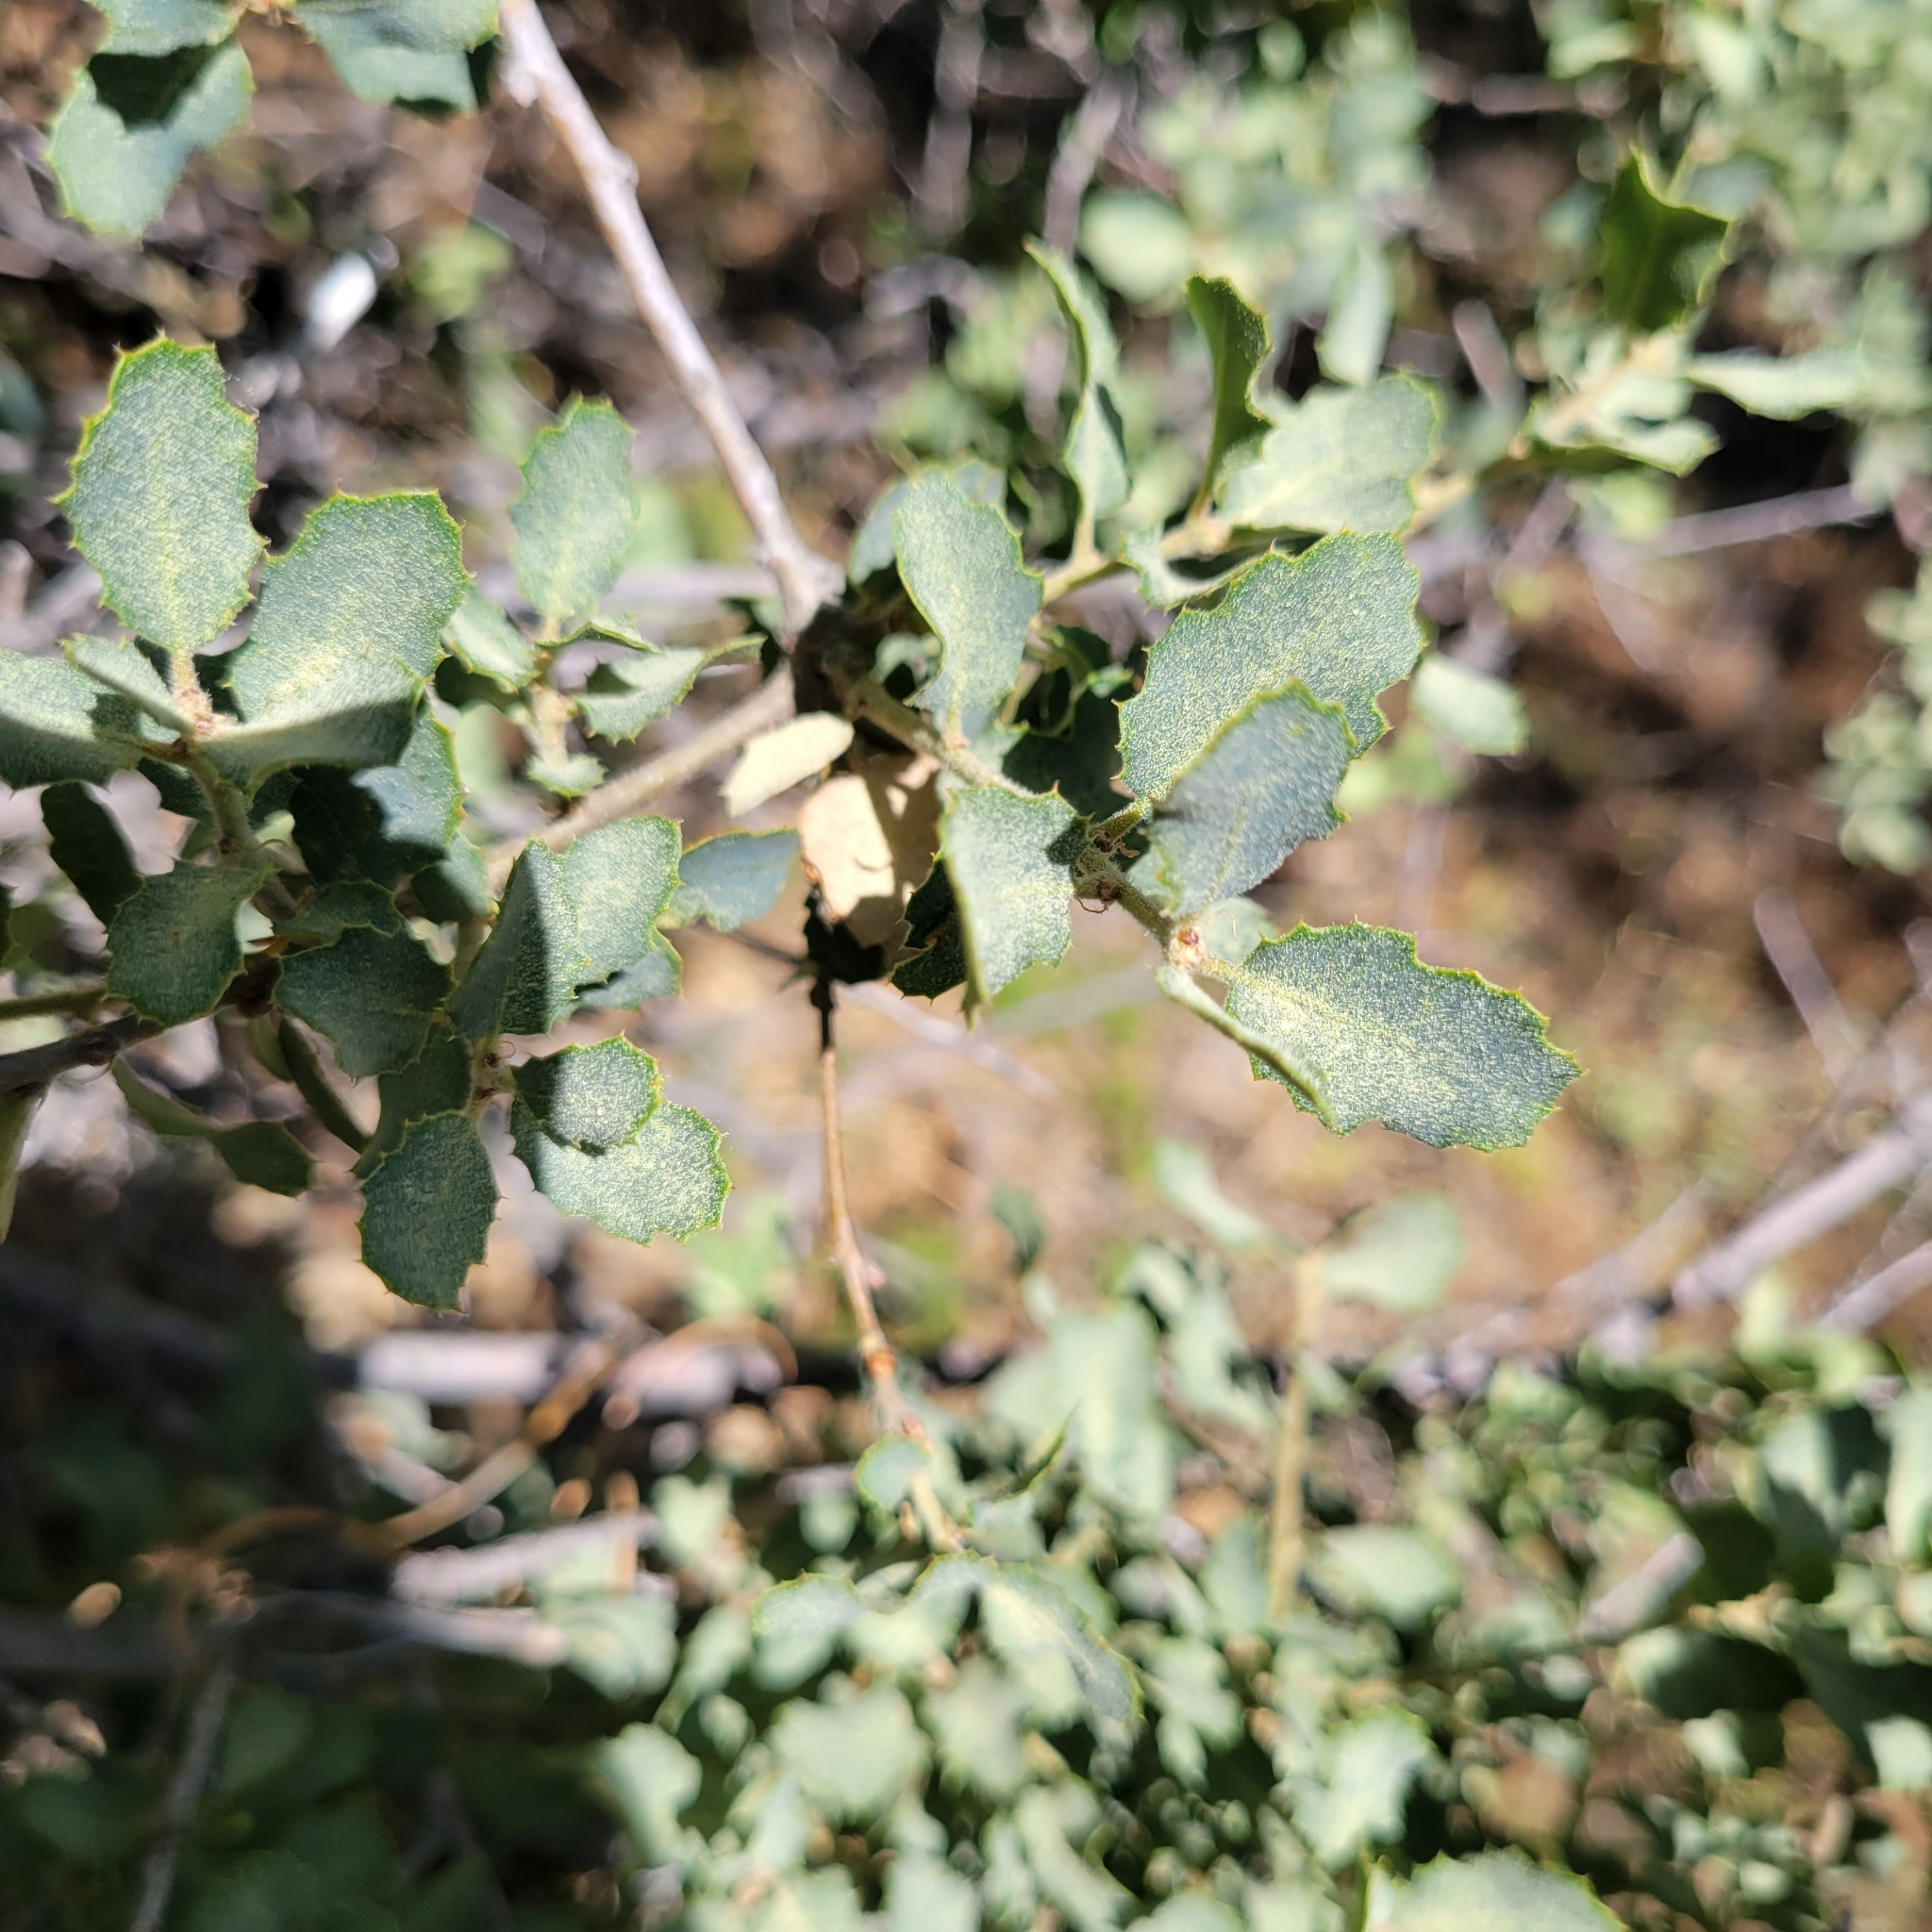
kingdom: Plantae
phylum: Tracheophyta
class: Magnoliopsida
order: Fagales
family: Fagaceae
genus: Quercus
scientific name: Quercus john-tuckeri
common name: Tucker's oak
